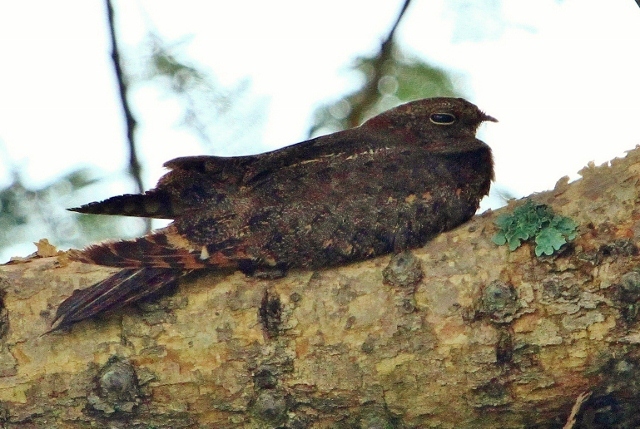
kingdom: Animalia
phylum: Chordata
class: Aves
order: Caprimulgiformes
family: Caprimulgidae
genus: Caprimulgus
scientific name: Caprimulgus vexillarius
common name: Pennant-winged nightjar
